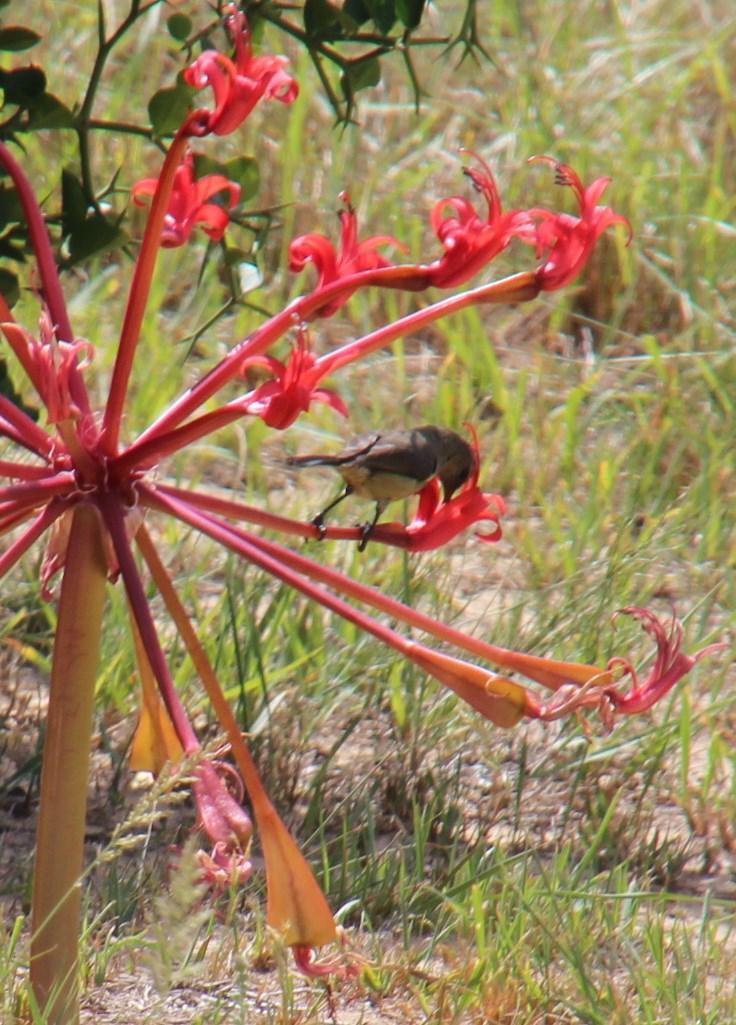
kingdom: Plantae
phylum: Tracheophyta
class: Liliopsida
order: Asparagales
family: Amaryllidaceae
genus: Brunsvigia
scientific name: Brunsvigia orientalis
